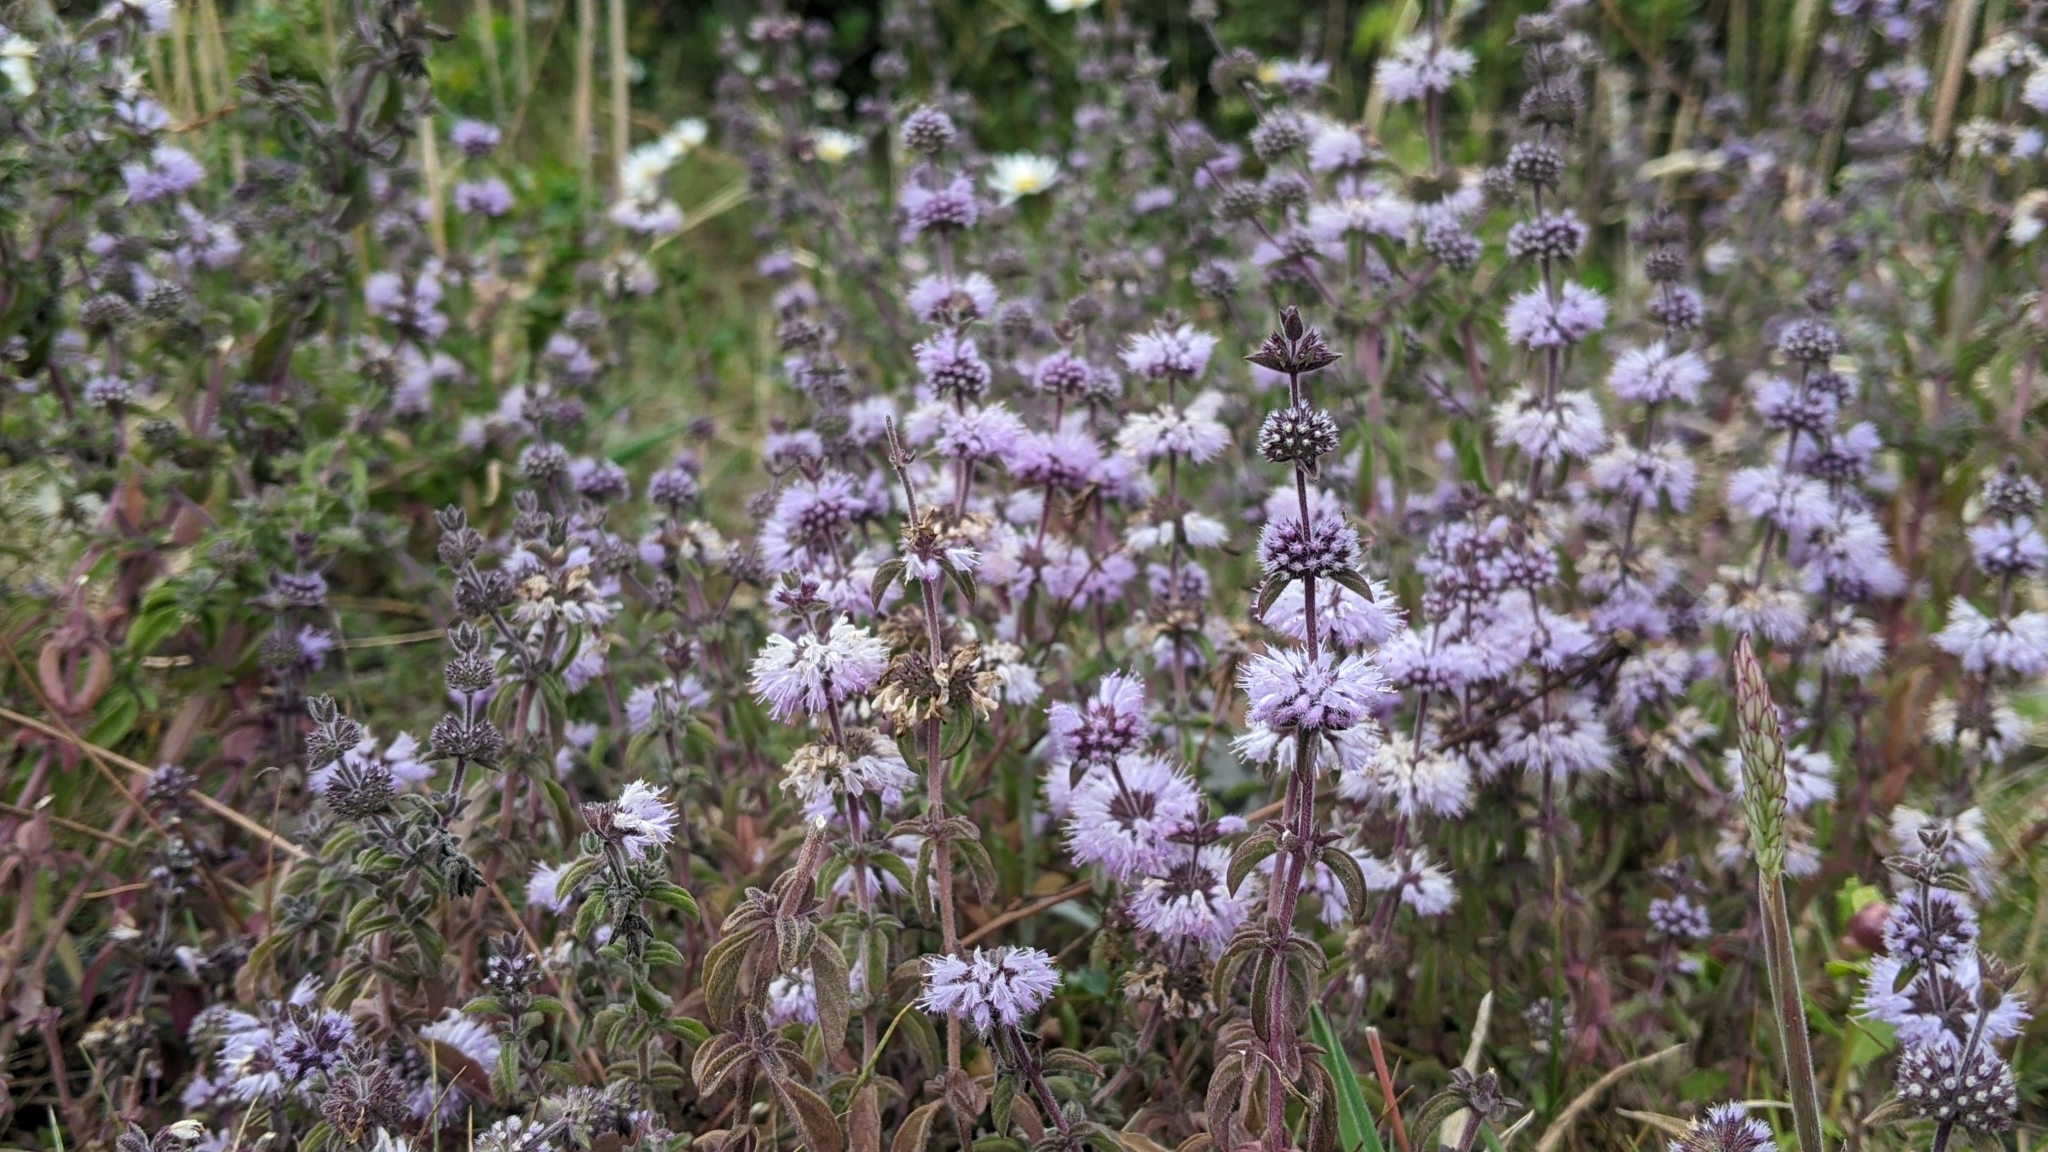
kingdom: Plantae
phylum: Tracheophyta
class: Magnoliopsida
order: Lamiales
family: Lamiaceae
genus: Mentha
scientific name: Mentha pulegium
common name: Pennyroyal
